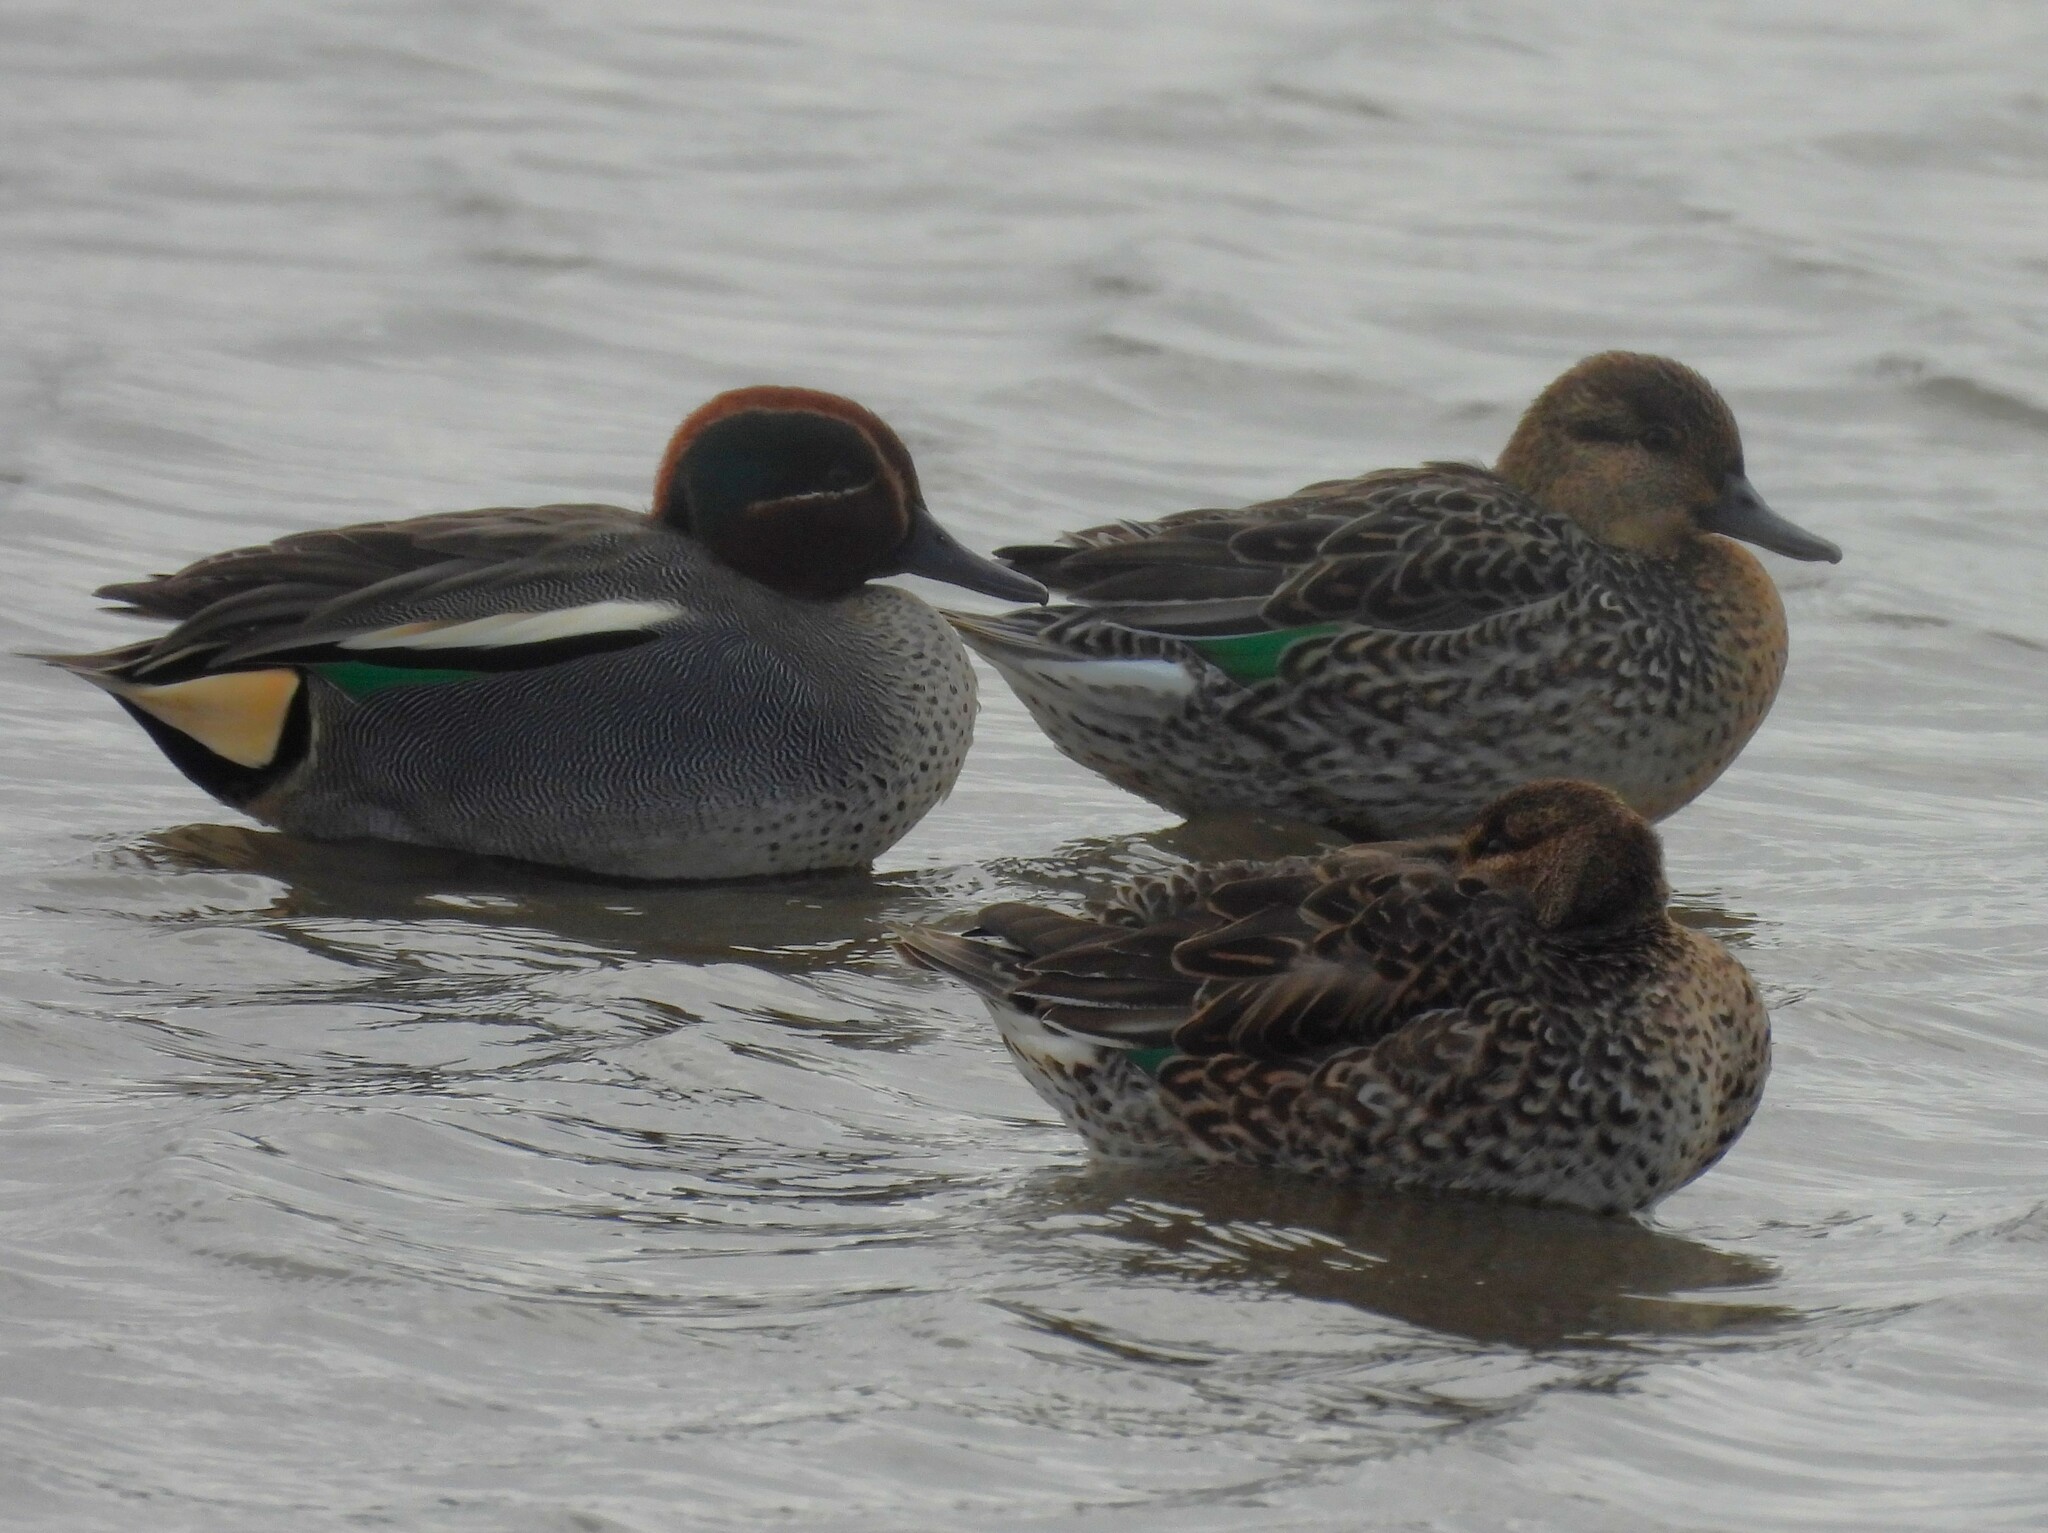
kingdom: Animalia
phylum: Chordata
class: Aves
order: Anseriformes
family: Anatidae
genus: Anas
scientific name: Anas crecca
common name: Eurasian teal
